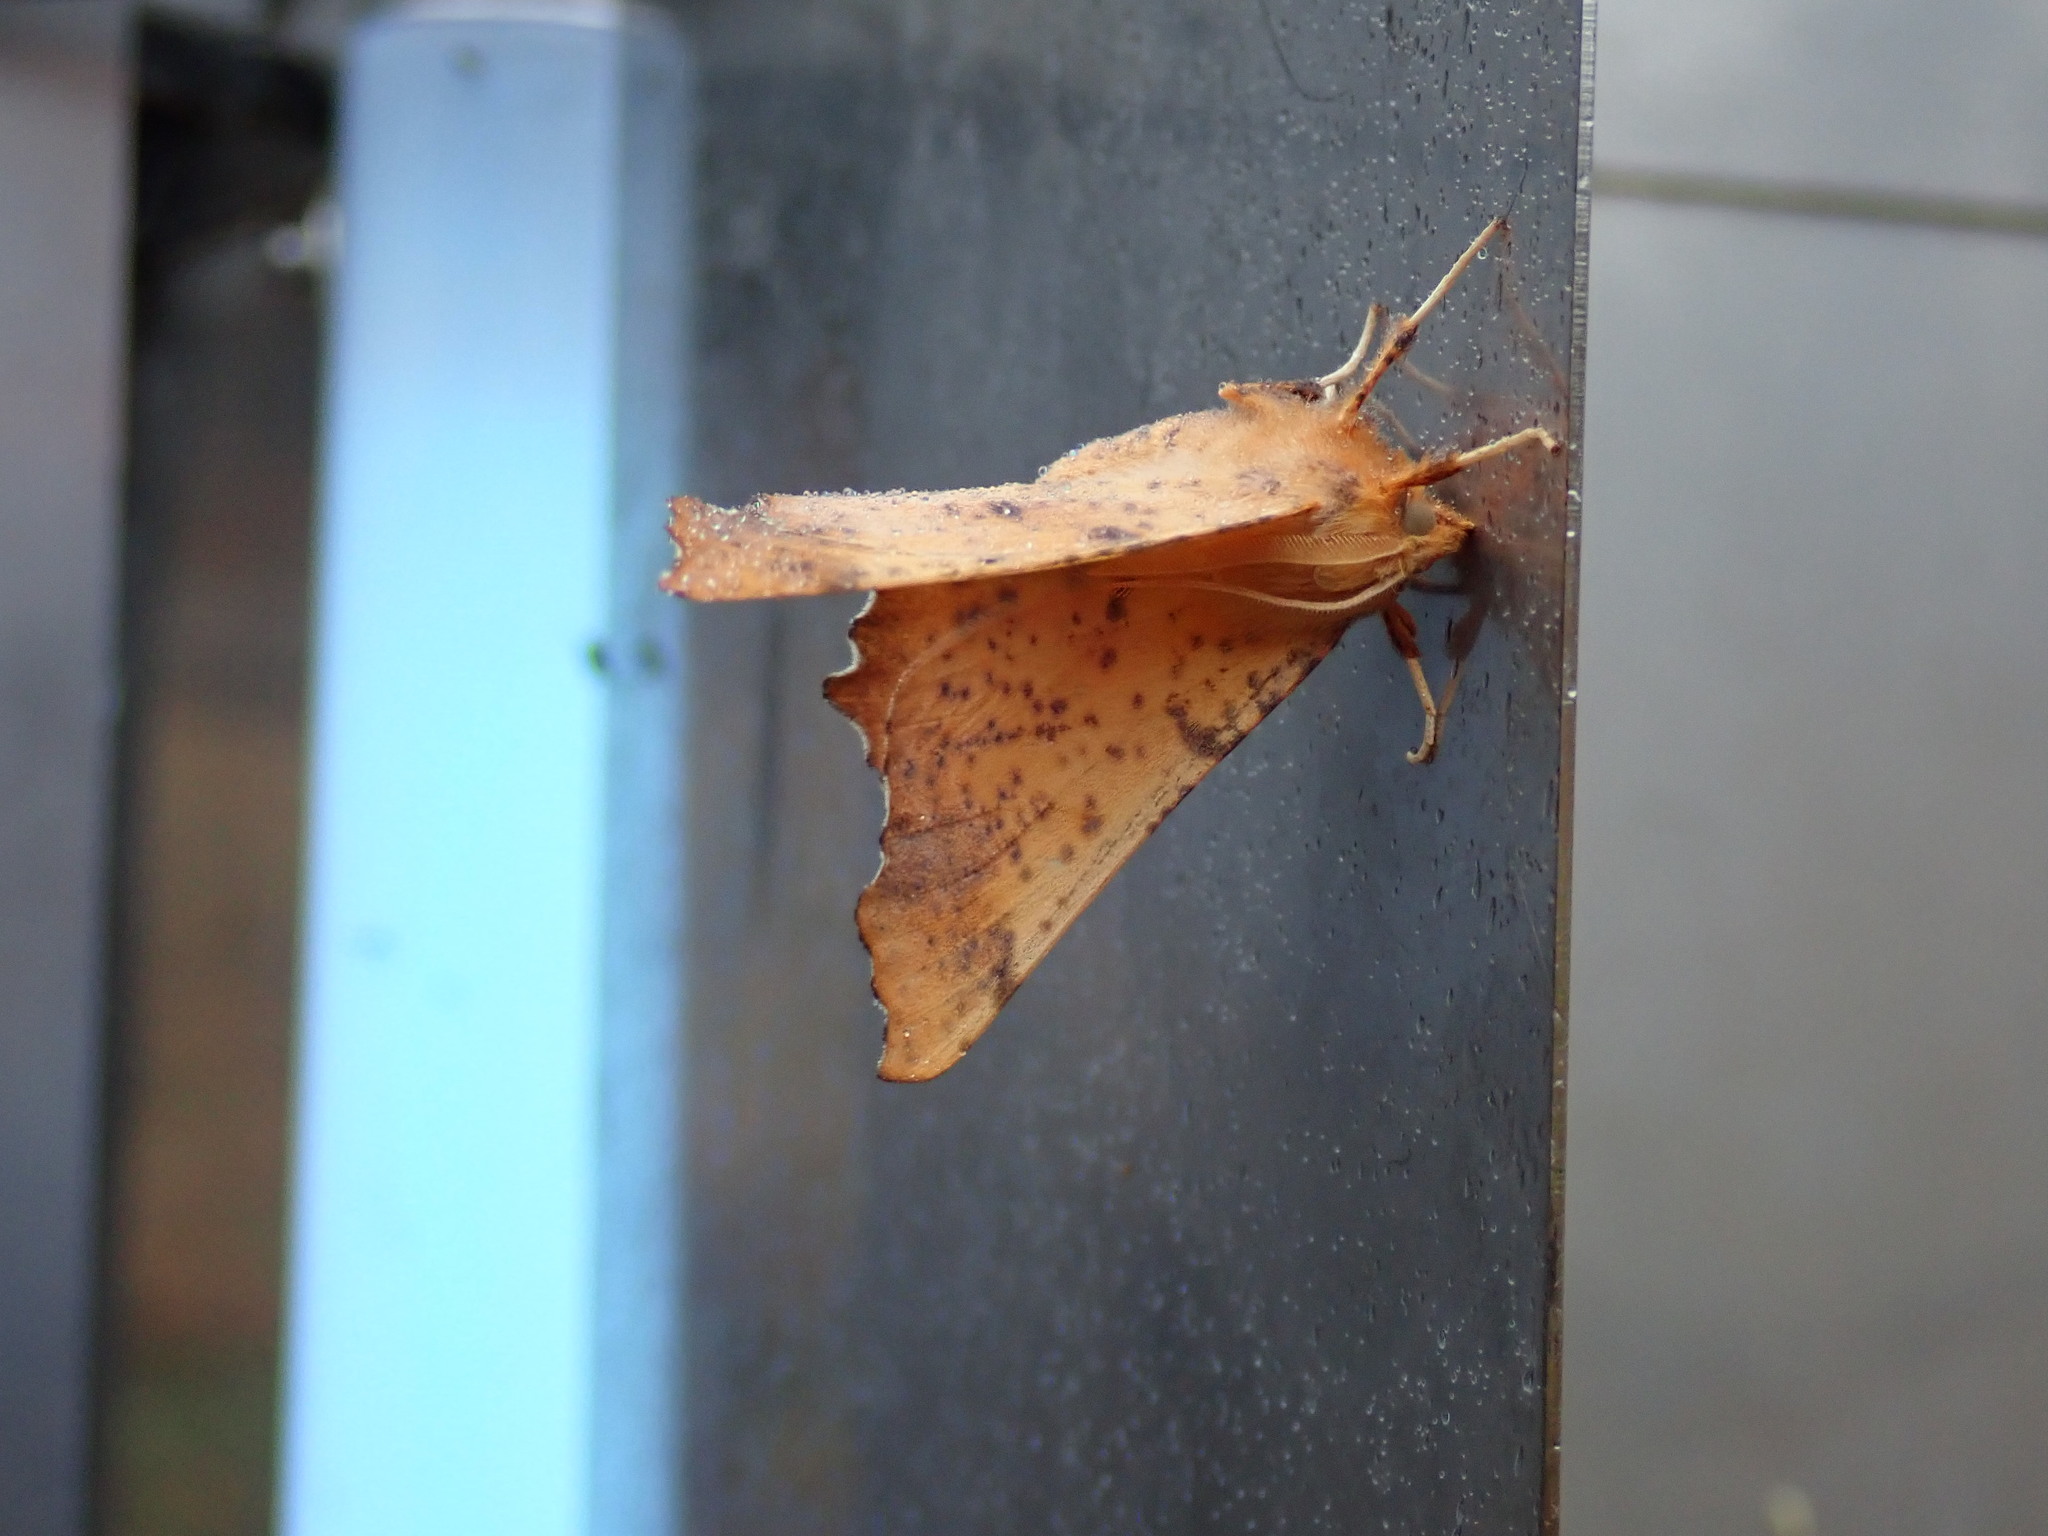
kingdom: Animalia
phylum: Arthropoda
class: Insecta
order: Lepidoptera
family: Geometridae
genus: Ennomos
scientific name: Ennomos magnaria
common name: Maple spanworm
